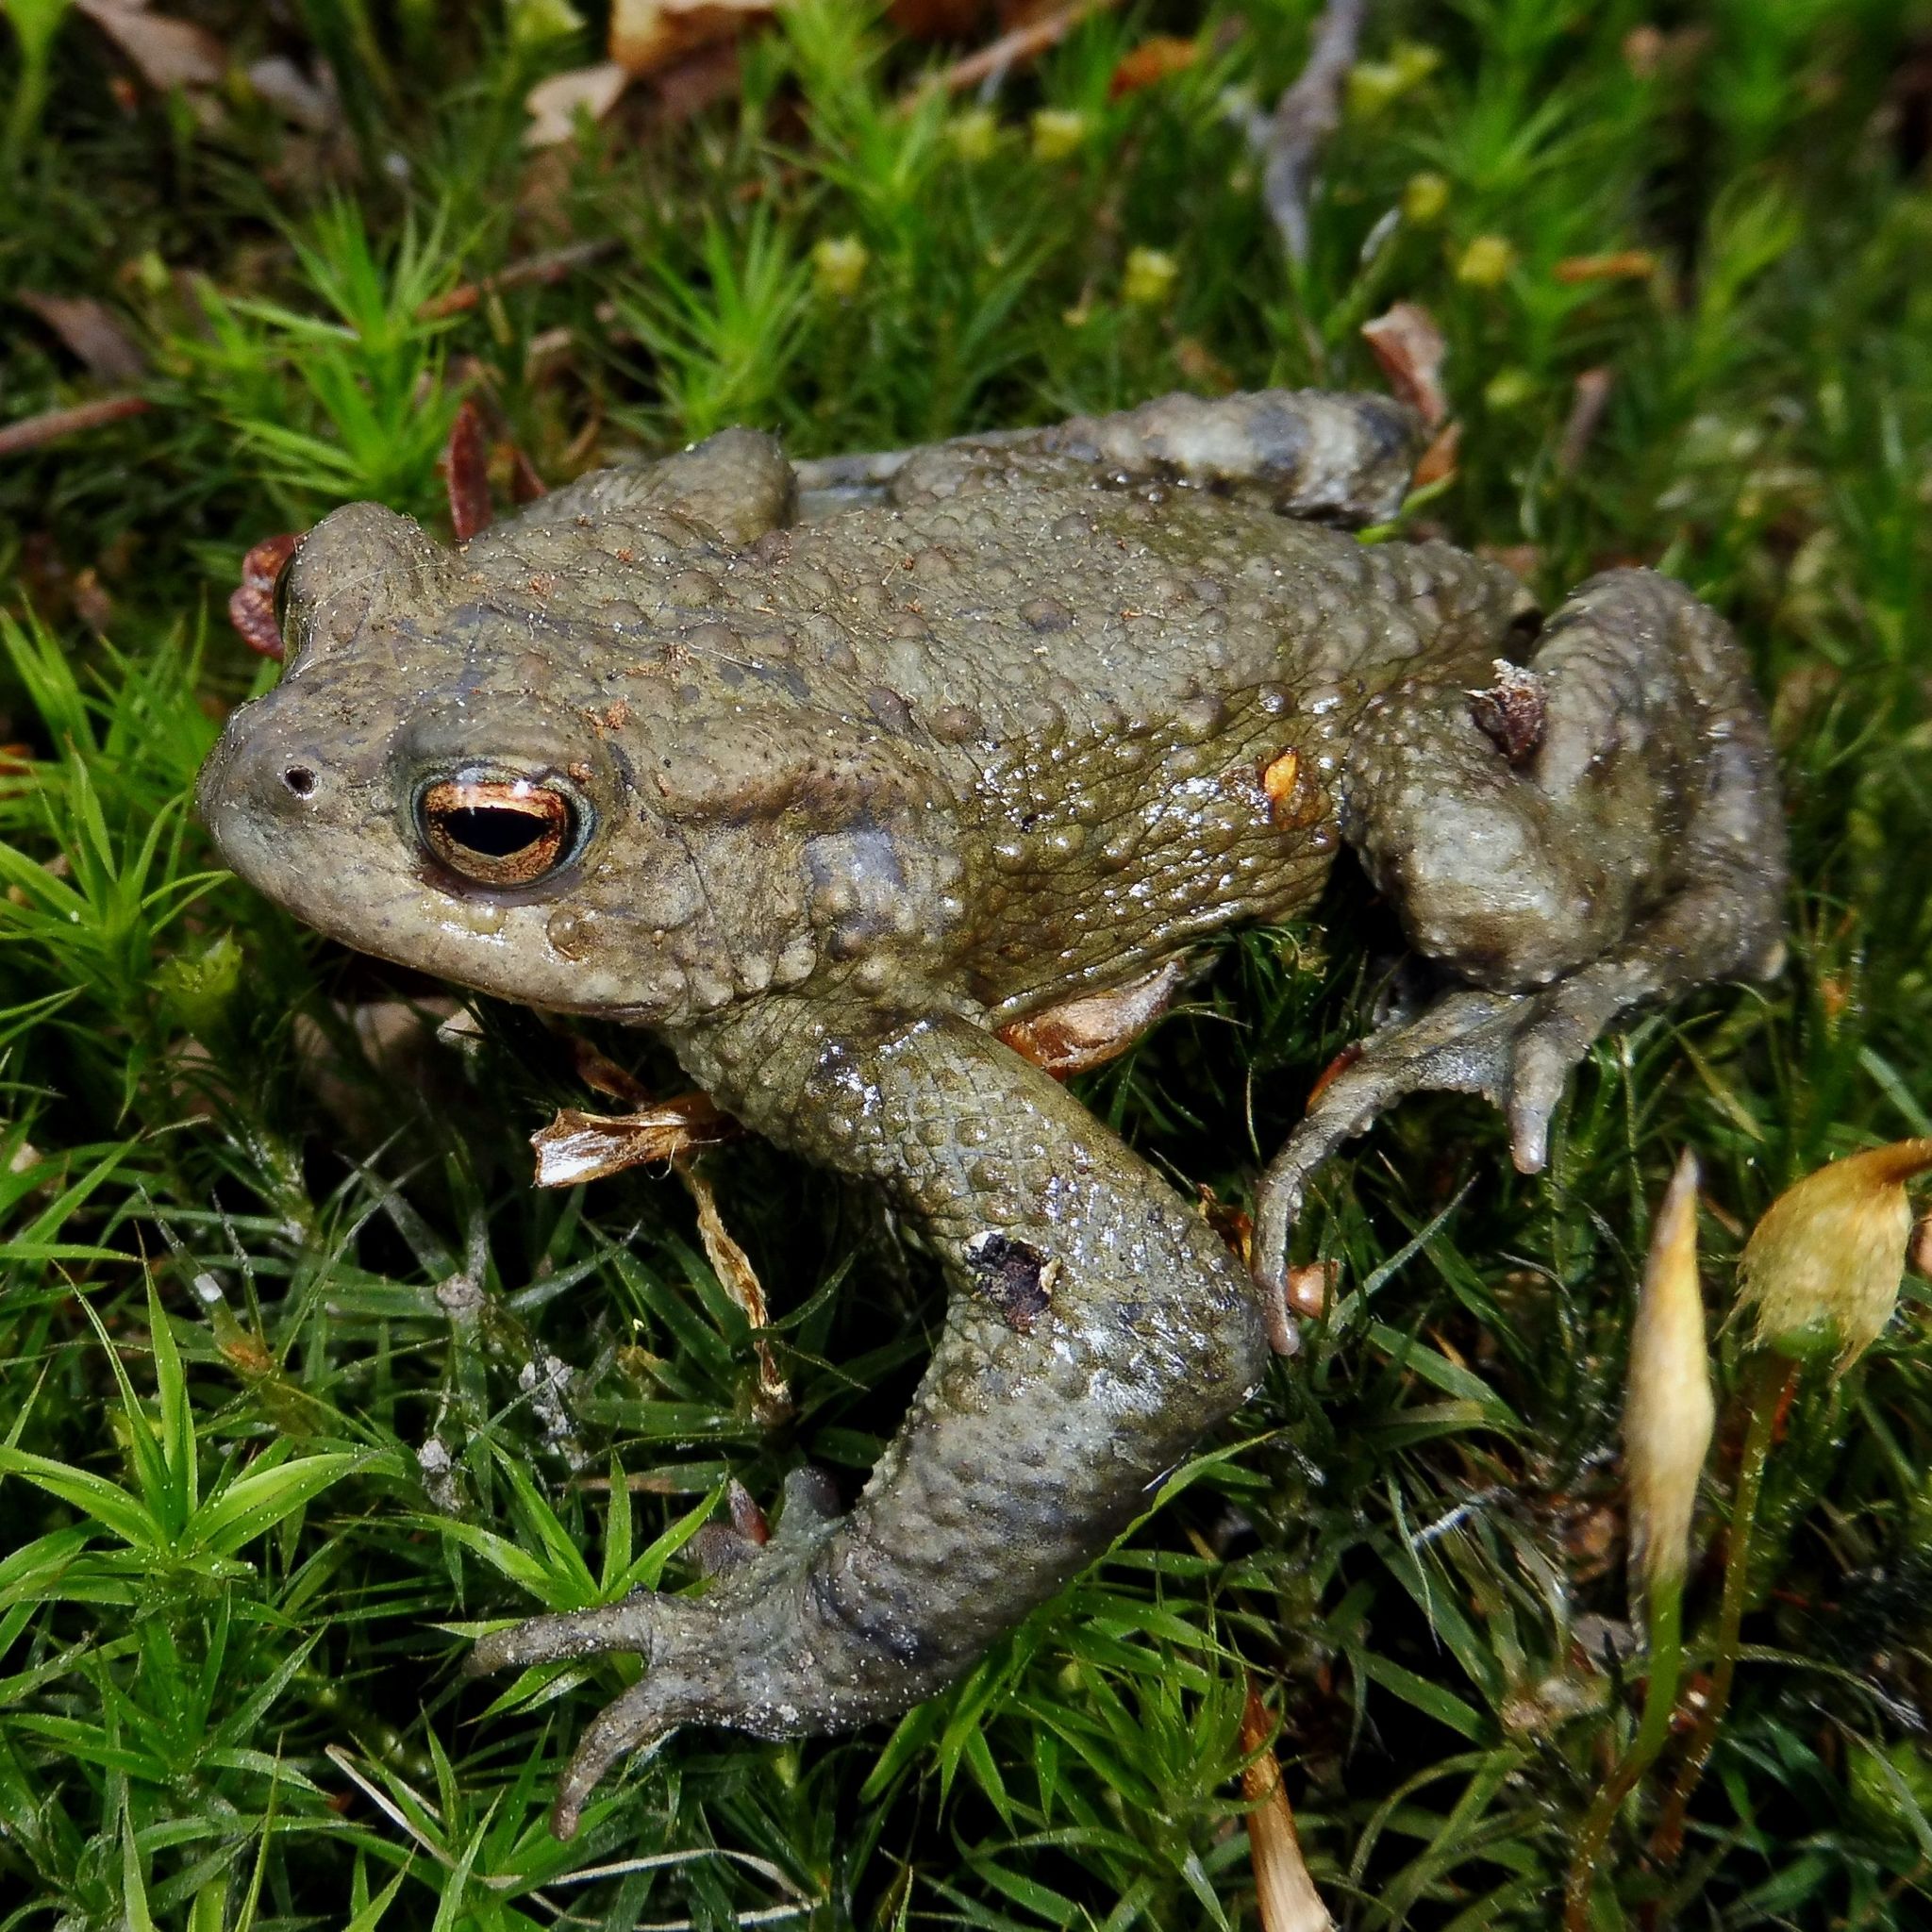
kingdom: Animalia
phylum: Chordata
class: Amphibia
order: Anura
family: Bufonidae
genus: Bufo
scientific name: Bufo bufo
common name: Common toad
